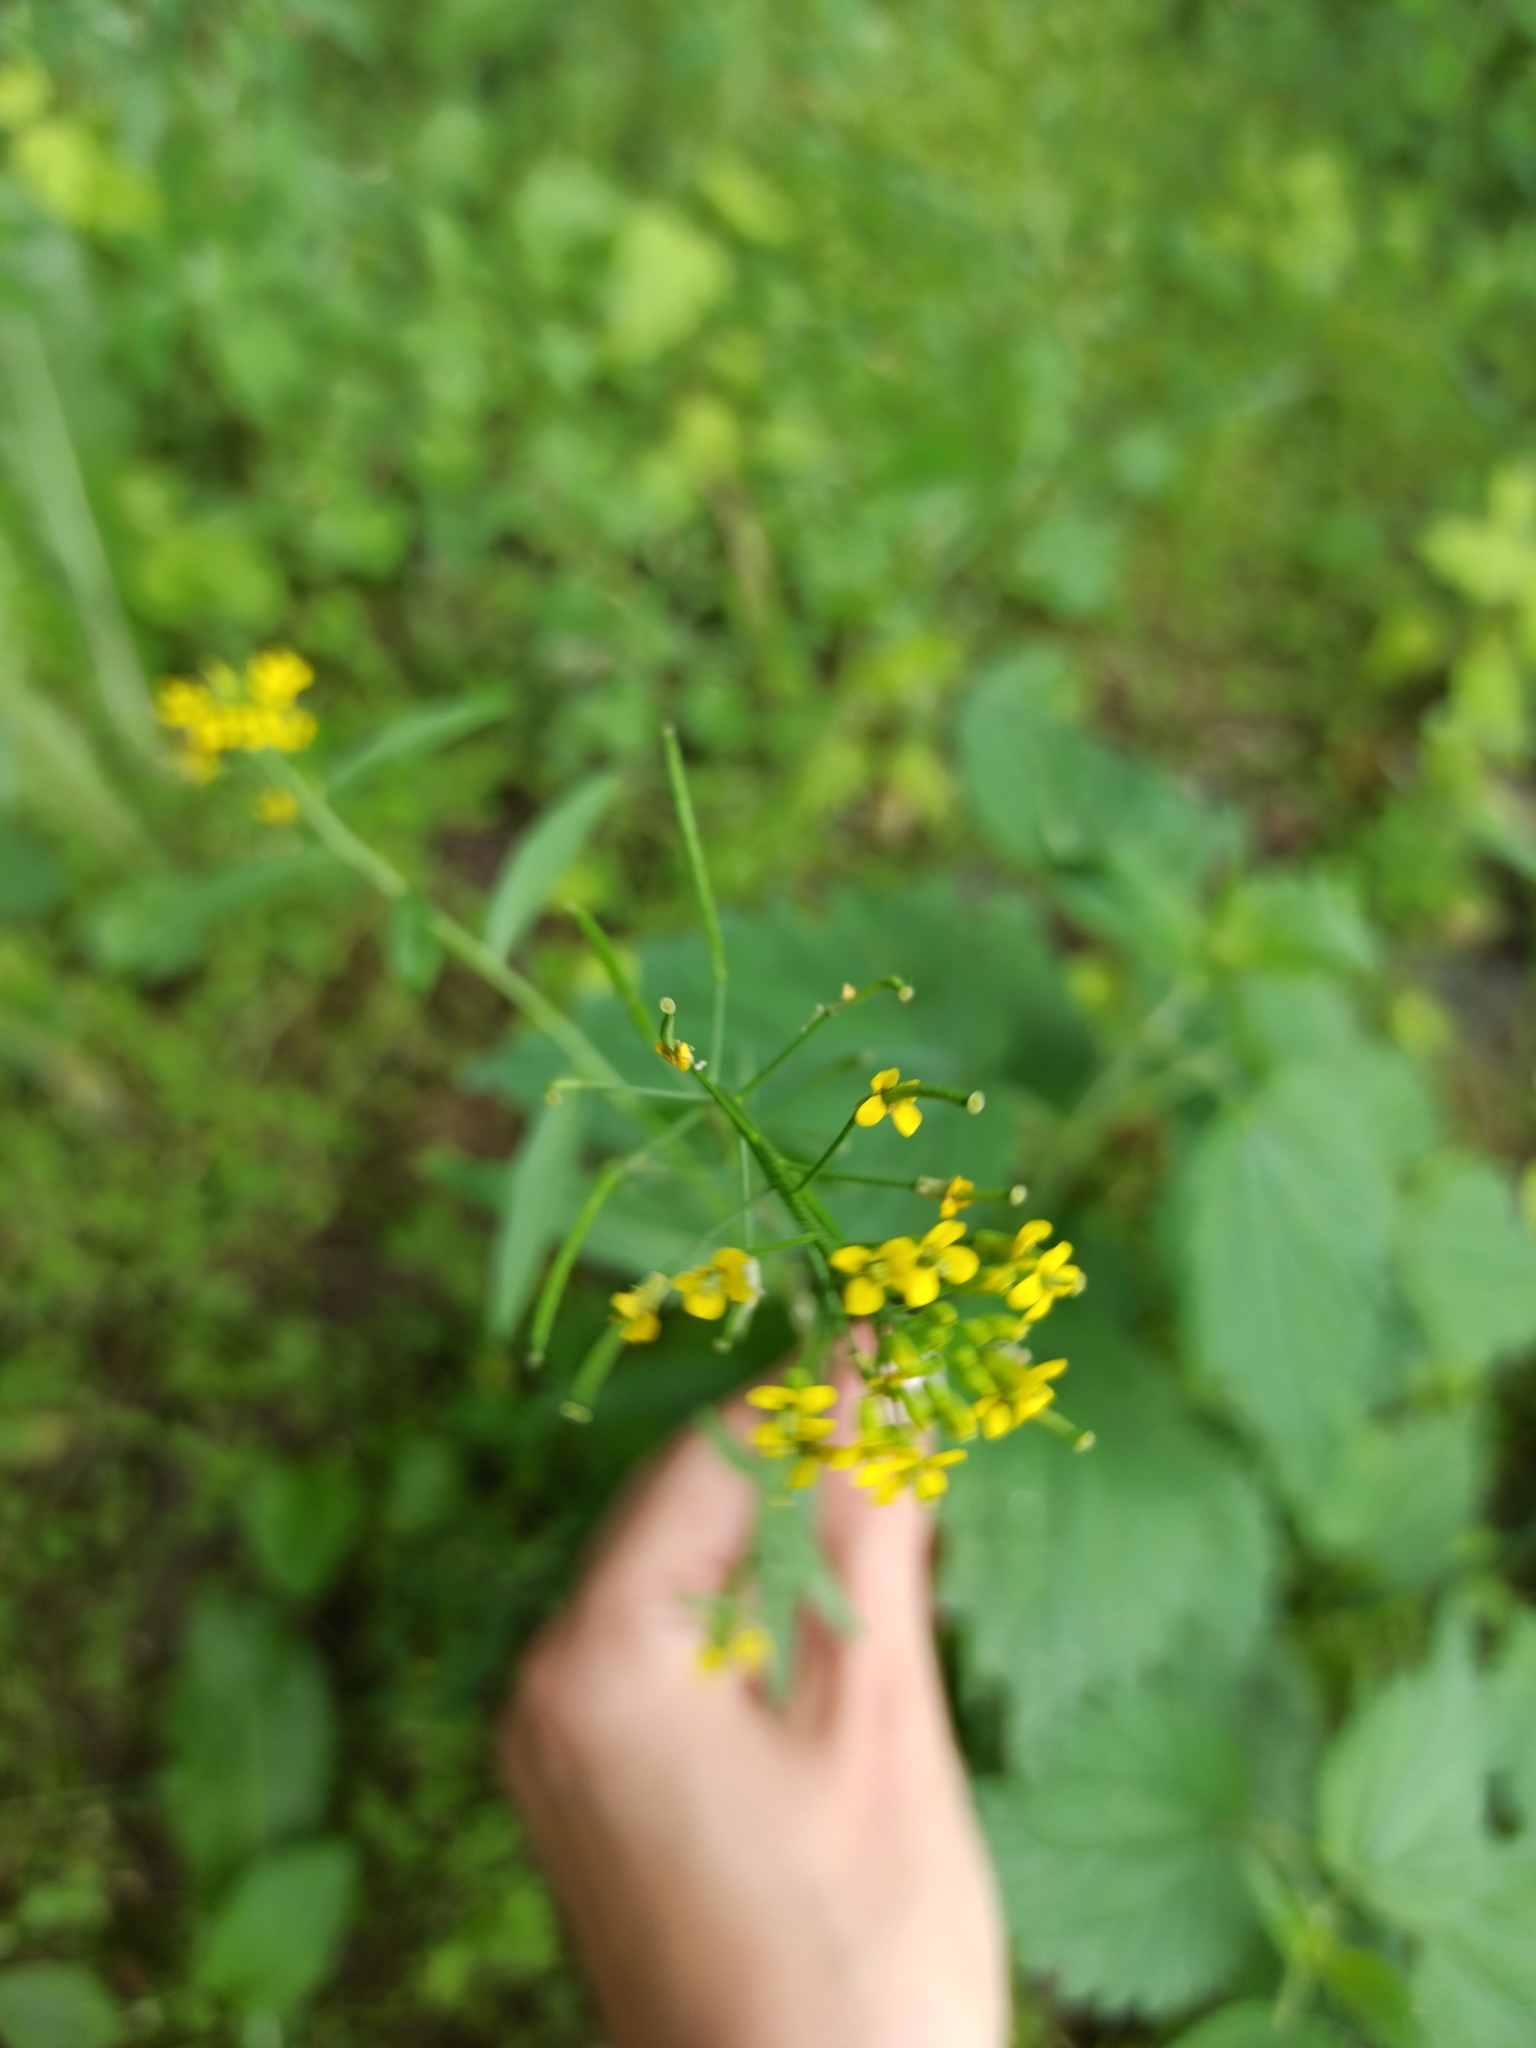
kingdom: Plantae
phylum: Tracheophyta
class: Magnoliopsida
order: Brassicales
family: Brassicaceae
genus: Erysimum
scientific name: Erysimum cheiranthoides
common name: Treacle mustard
